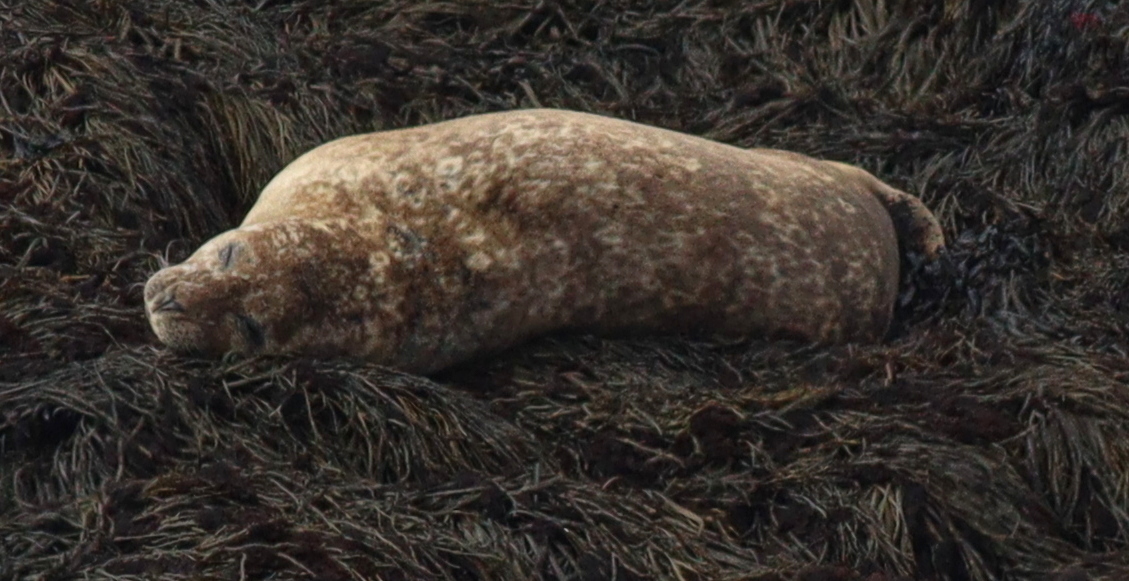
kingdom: Animalia
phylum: Chordata
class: Mammalia
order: Carnivora
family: Phocidae
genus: Phoca
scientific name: Phoca vitulina
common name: Harbor seal
